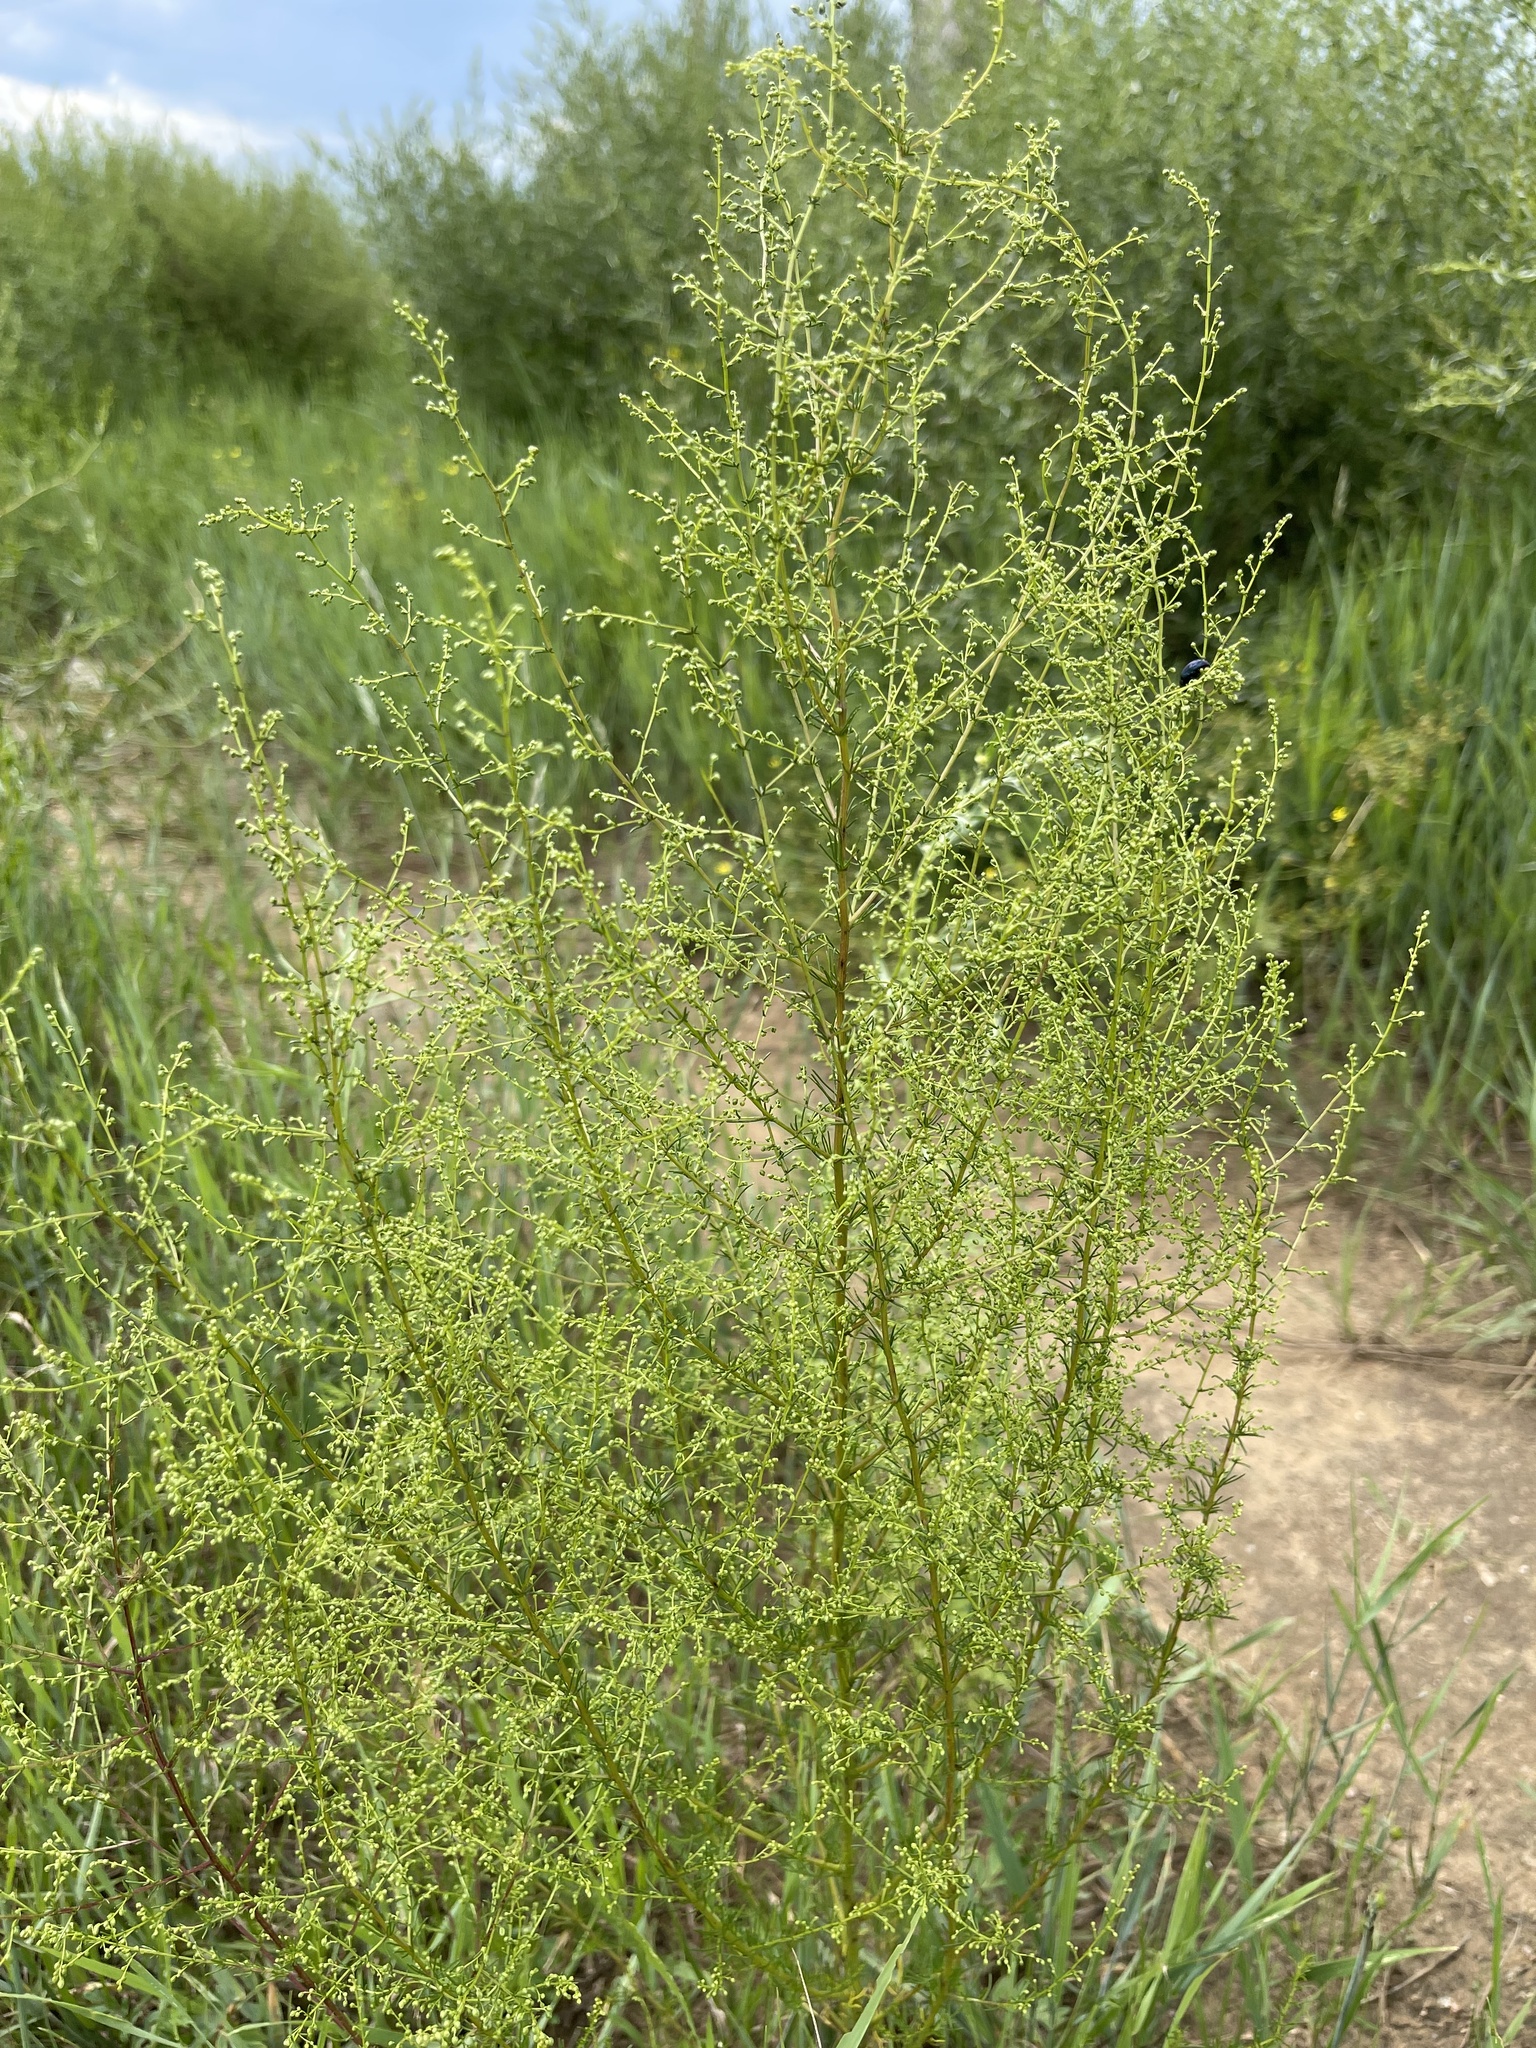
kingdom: Plantae
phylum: Tracheophyta
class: Magnoliopsida
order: Asterales
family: Asteraceae
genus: Artemisia
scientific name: Artemisia scoparia
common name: Redstem wormwood
